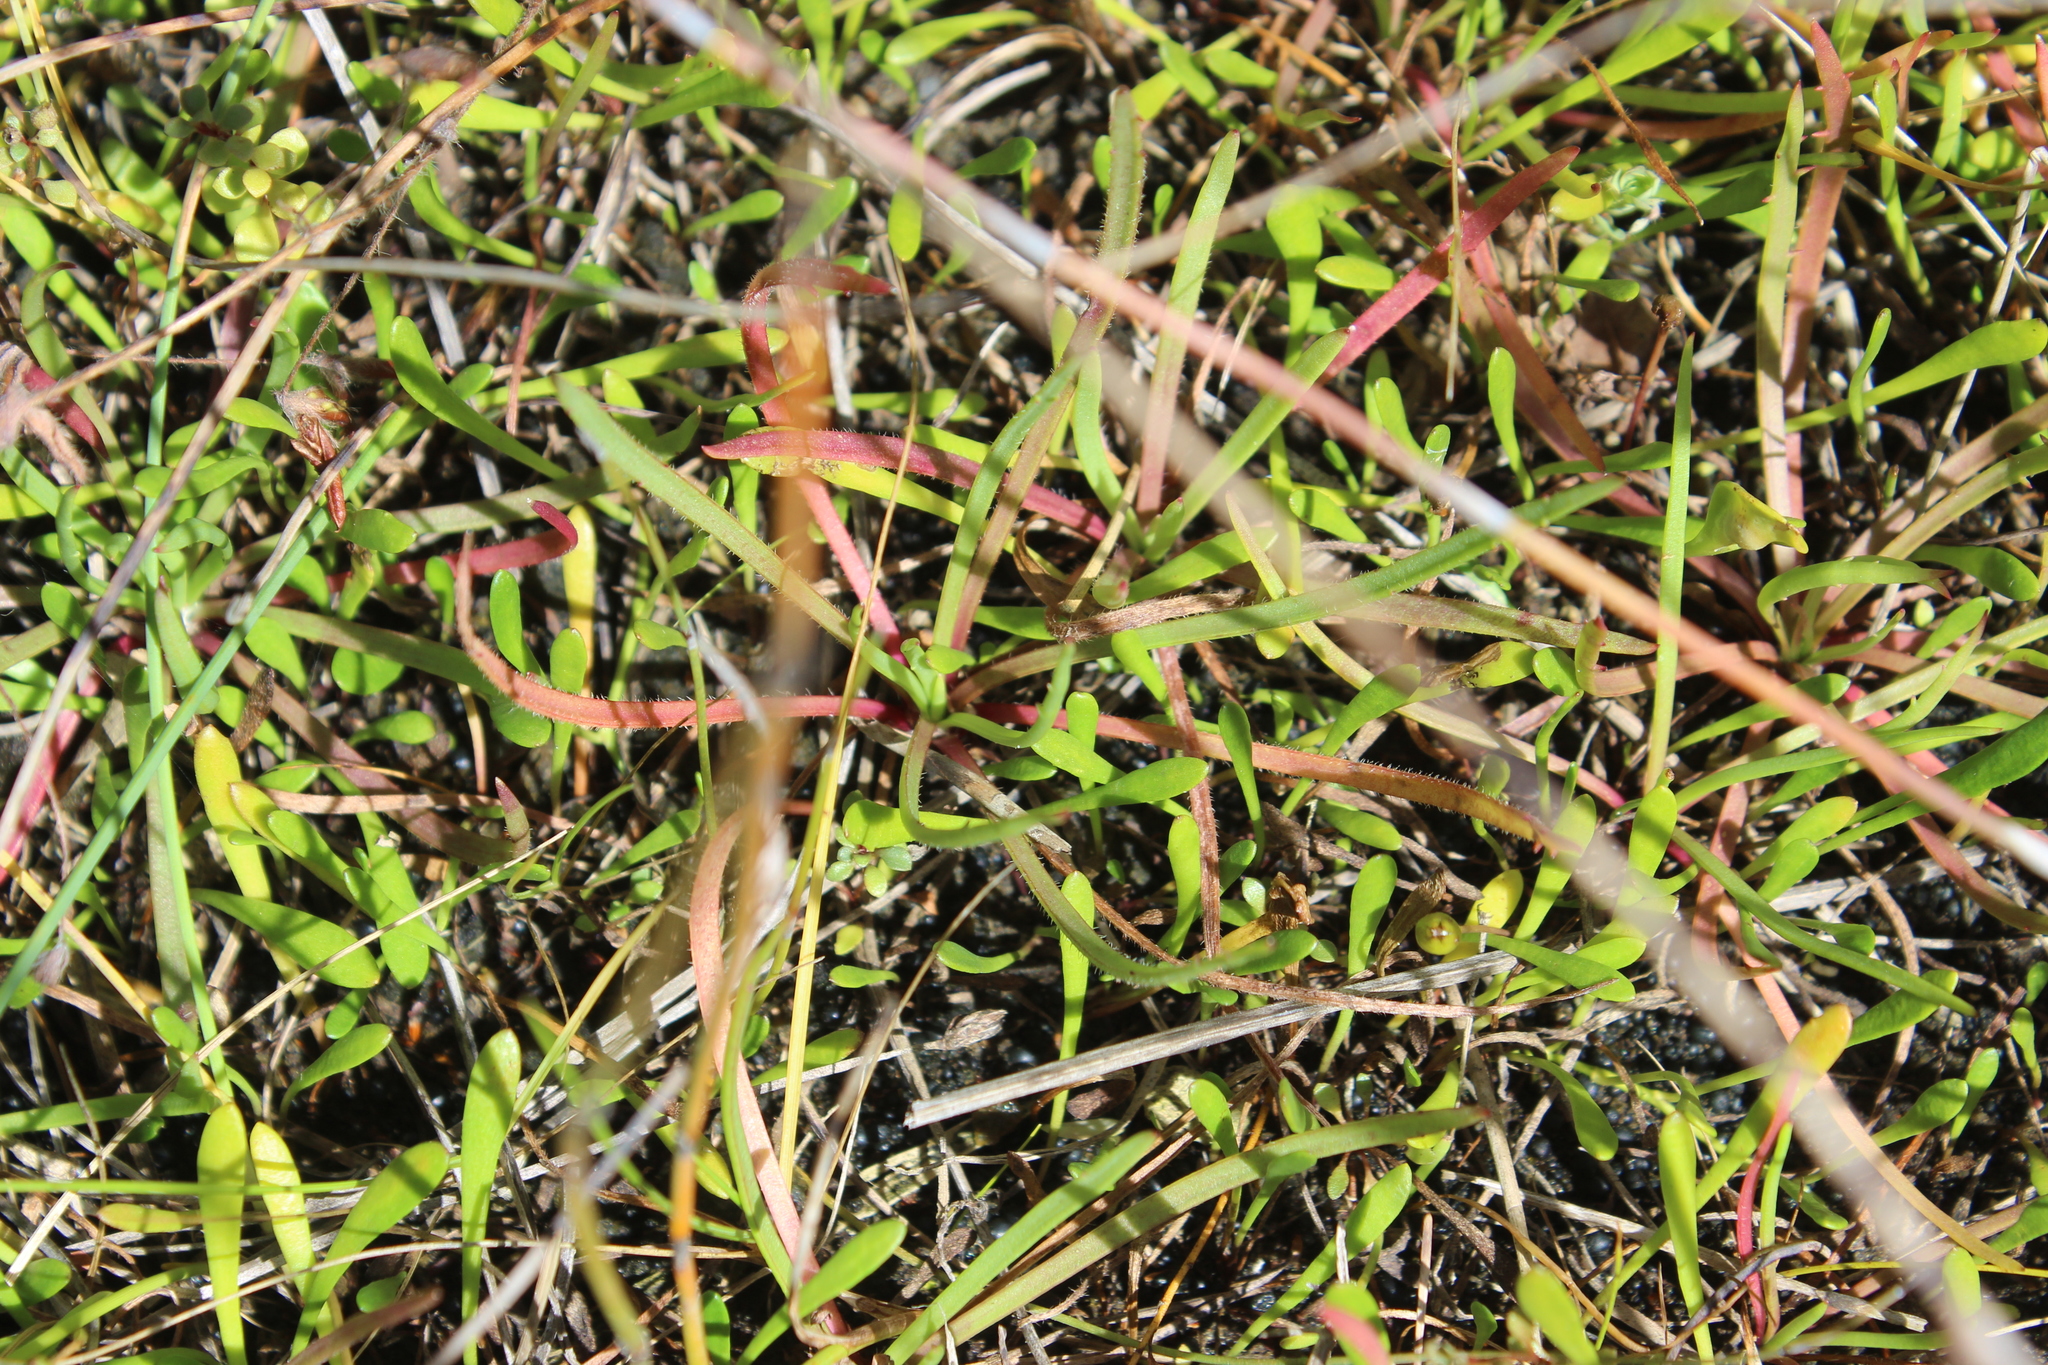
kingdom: Plantae
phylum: Tracheophyta
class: Magnoliopsida
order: Lamiales
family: Plantaginaceae
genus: Plantago
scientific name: Plantago coronopus
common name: Buck's-horn plantain
